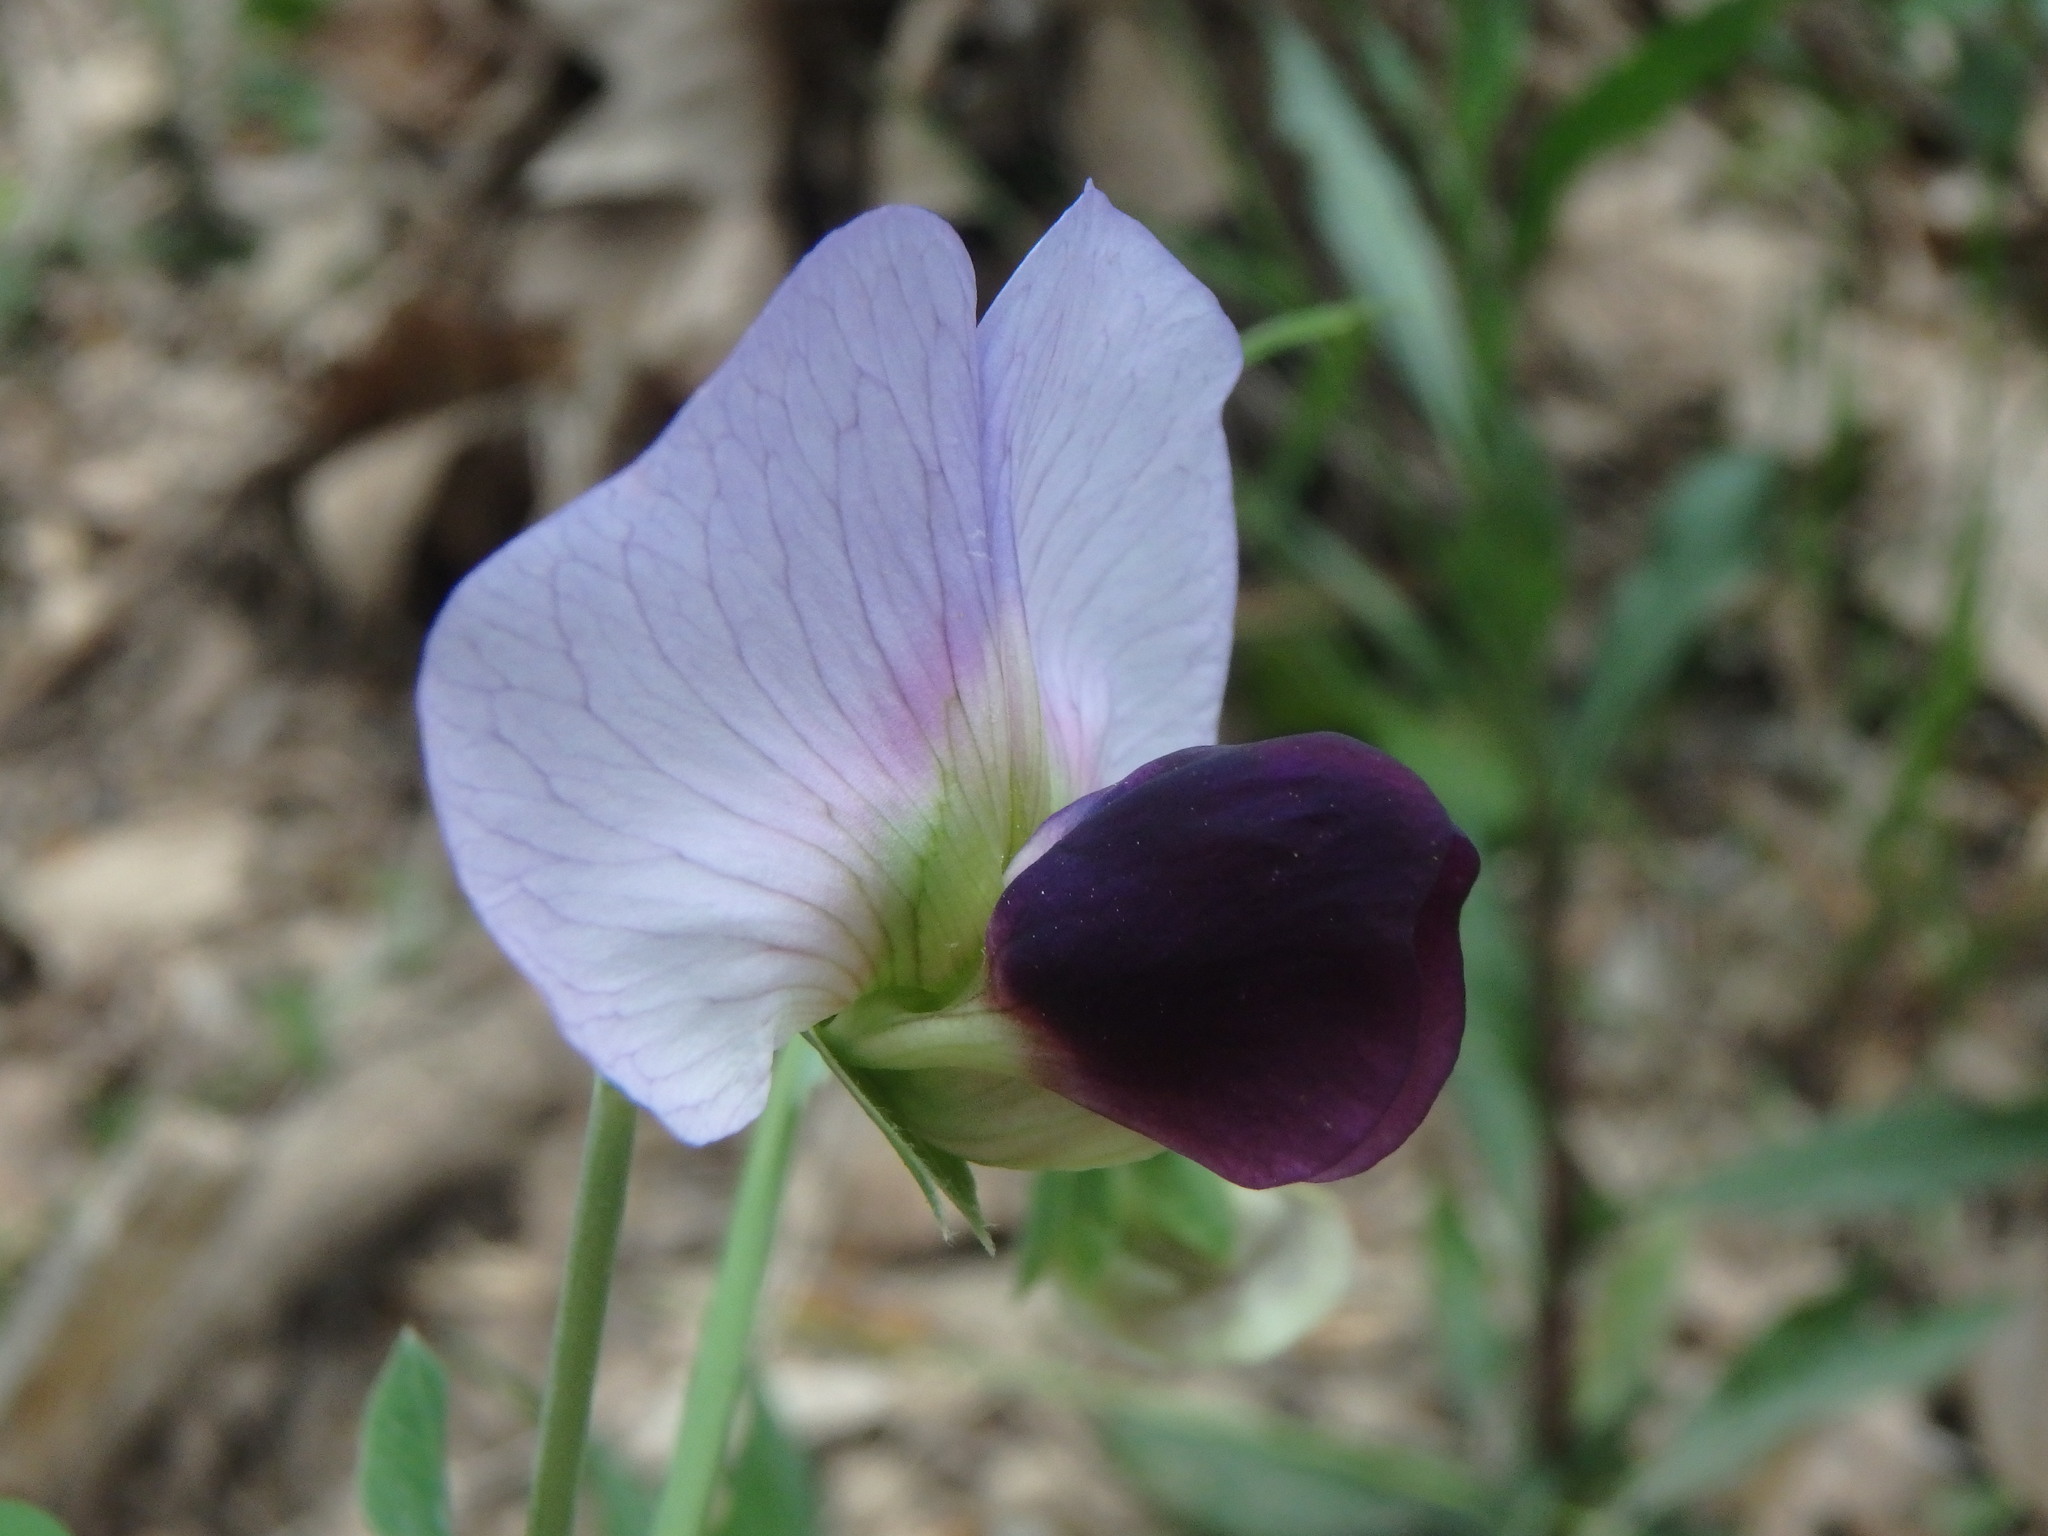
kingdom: Plantae
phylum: Tracheophyta
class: Magnoliopsida
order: Fabales
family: Fabaceae
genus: Lathyrus
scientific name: Lathyrus oleraceus
